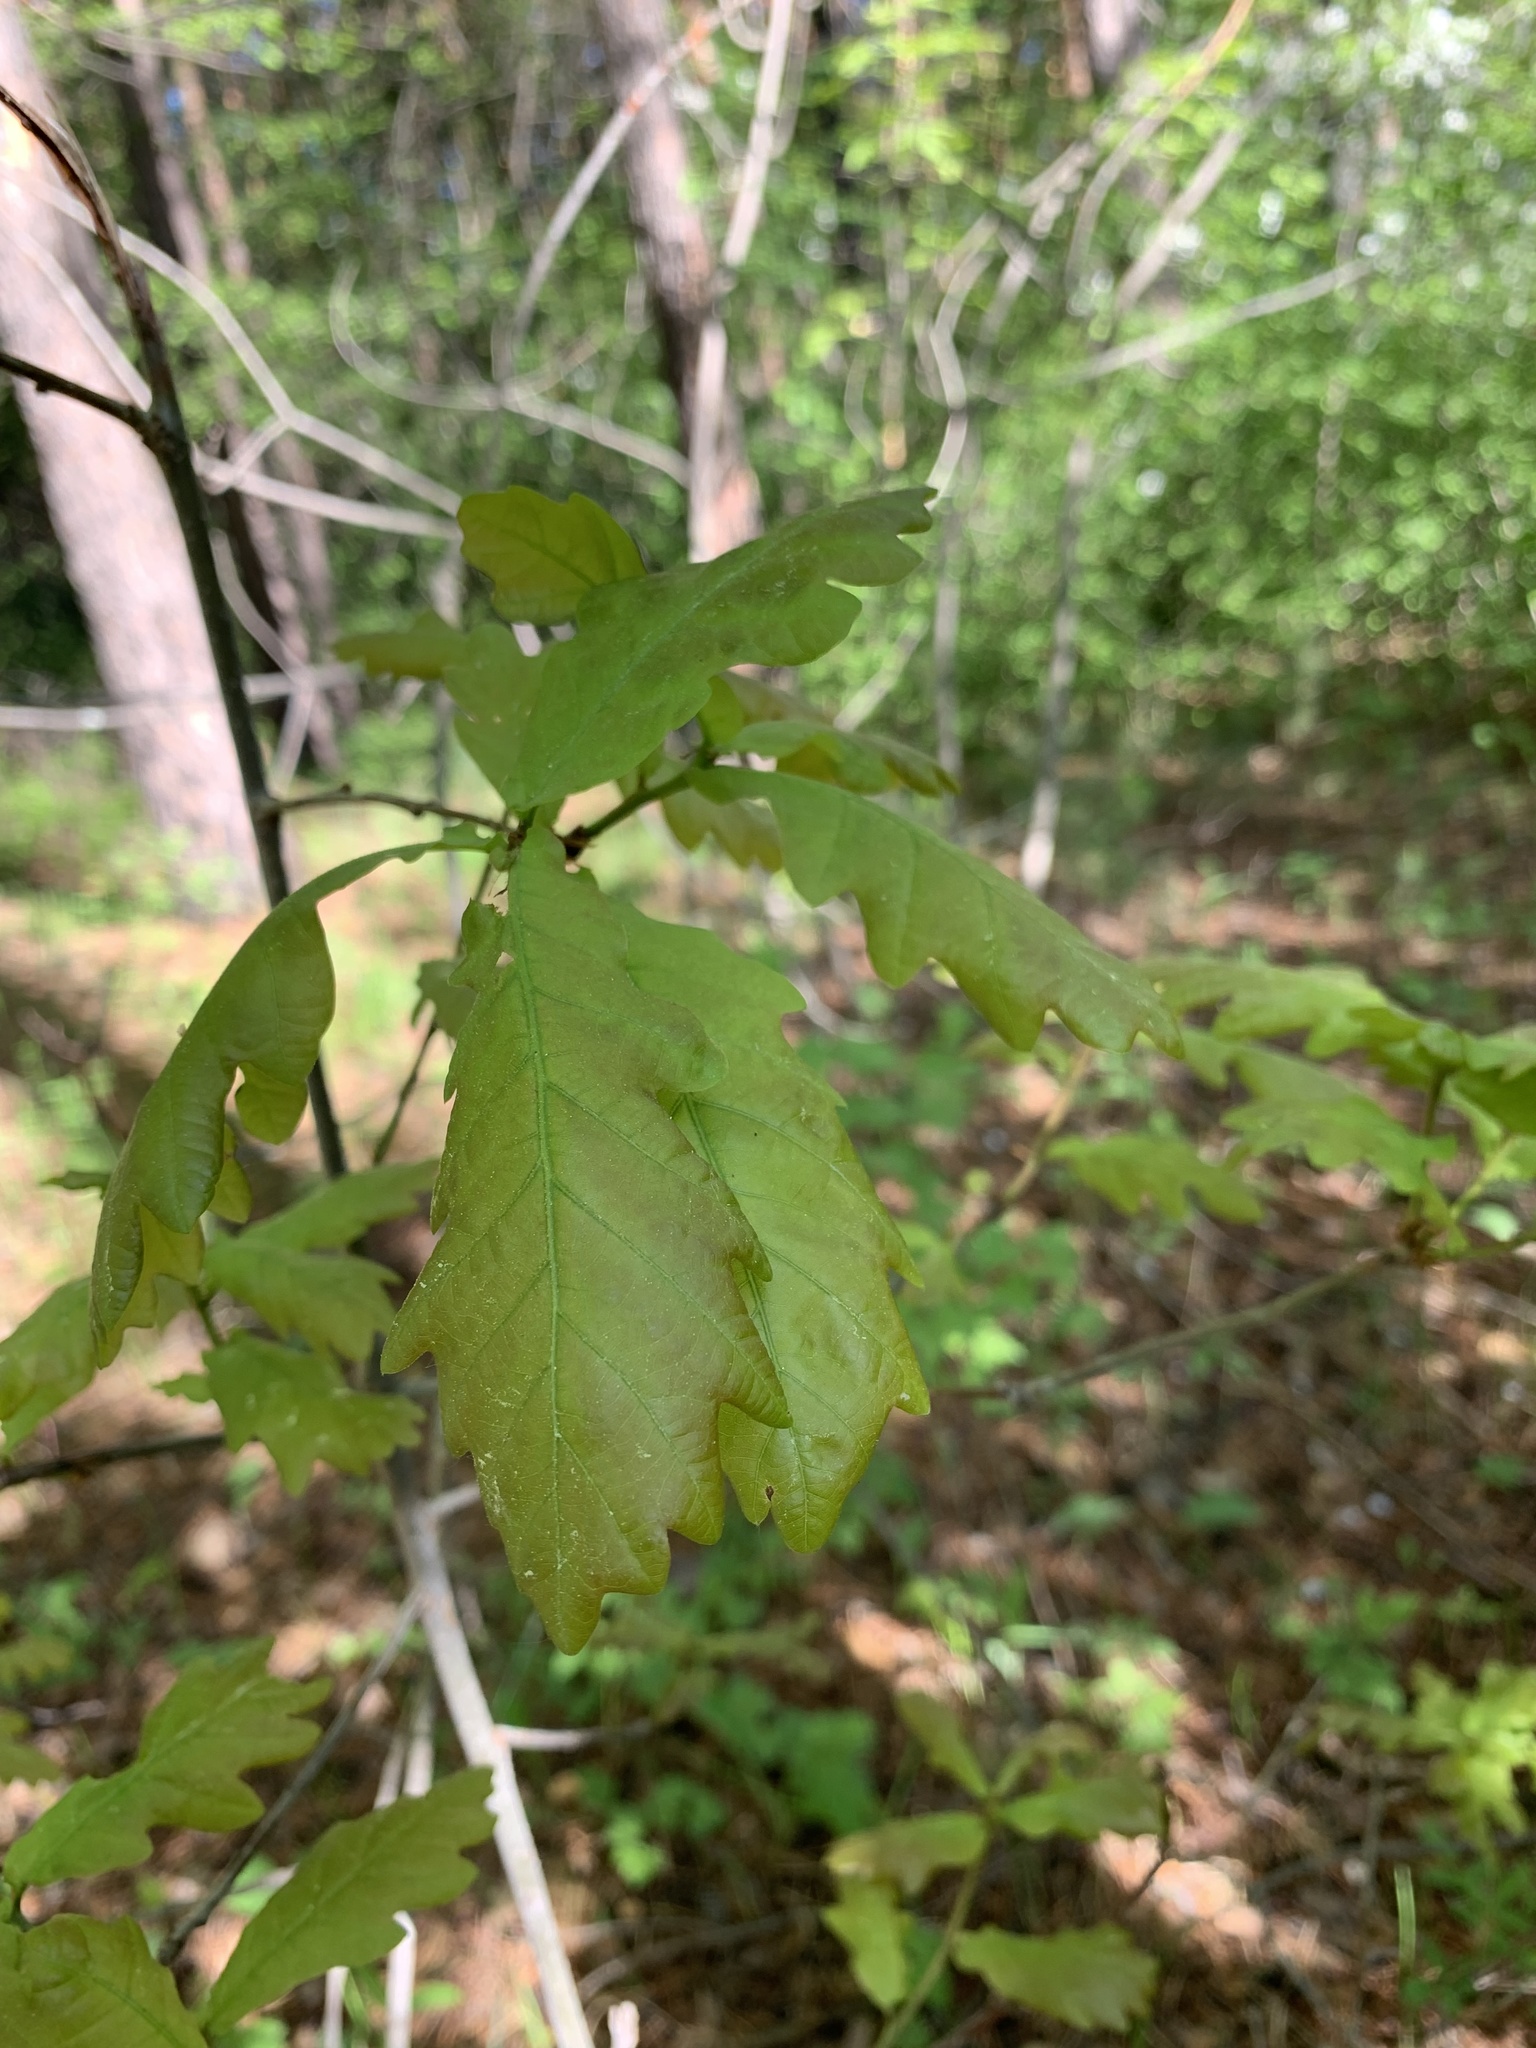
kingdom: Plantae
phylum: Tracheophyta
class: Magnoliopsida
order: Fagales
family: Fagaceae
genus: Quercus
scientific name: Quercus robur
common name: Pedunculate oak
